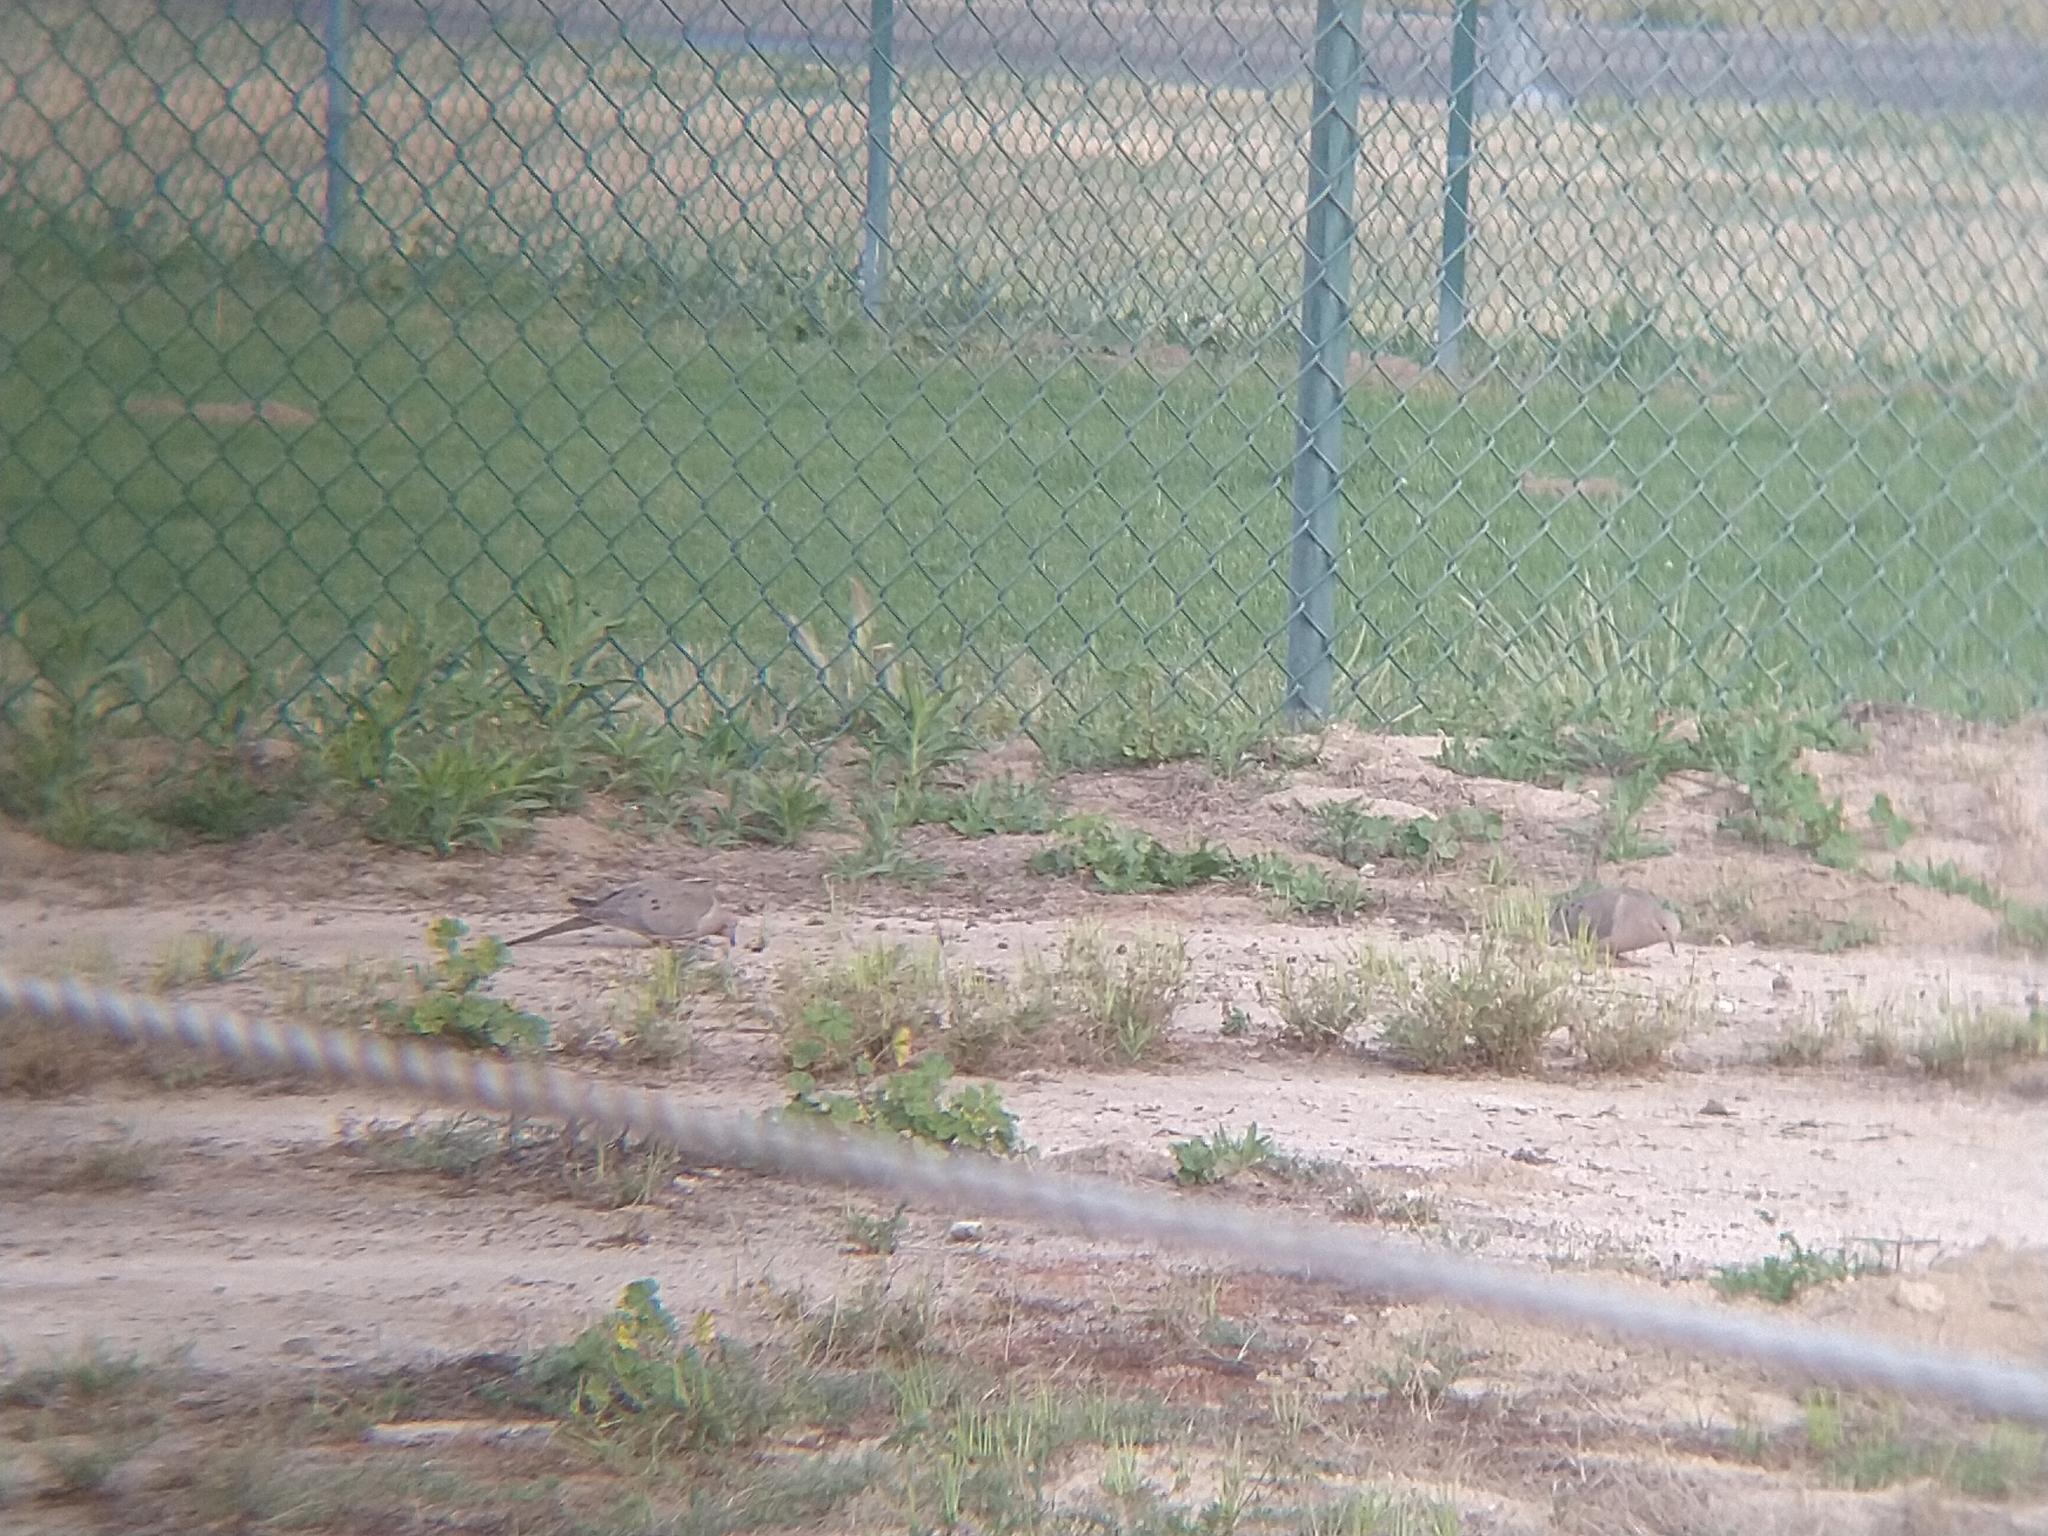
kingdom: Animalia
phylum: Chordata
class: Aves
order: Columbiformes
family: Columbidae
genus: Zenaida
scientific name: Zenaida macroura
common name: Mourning dove
